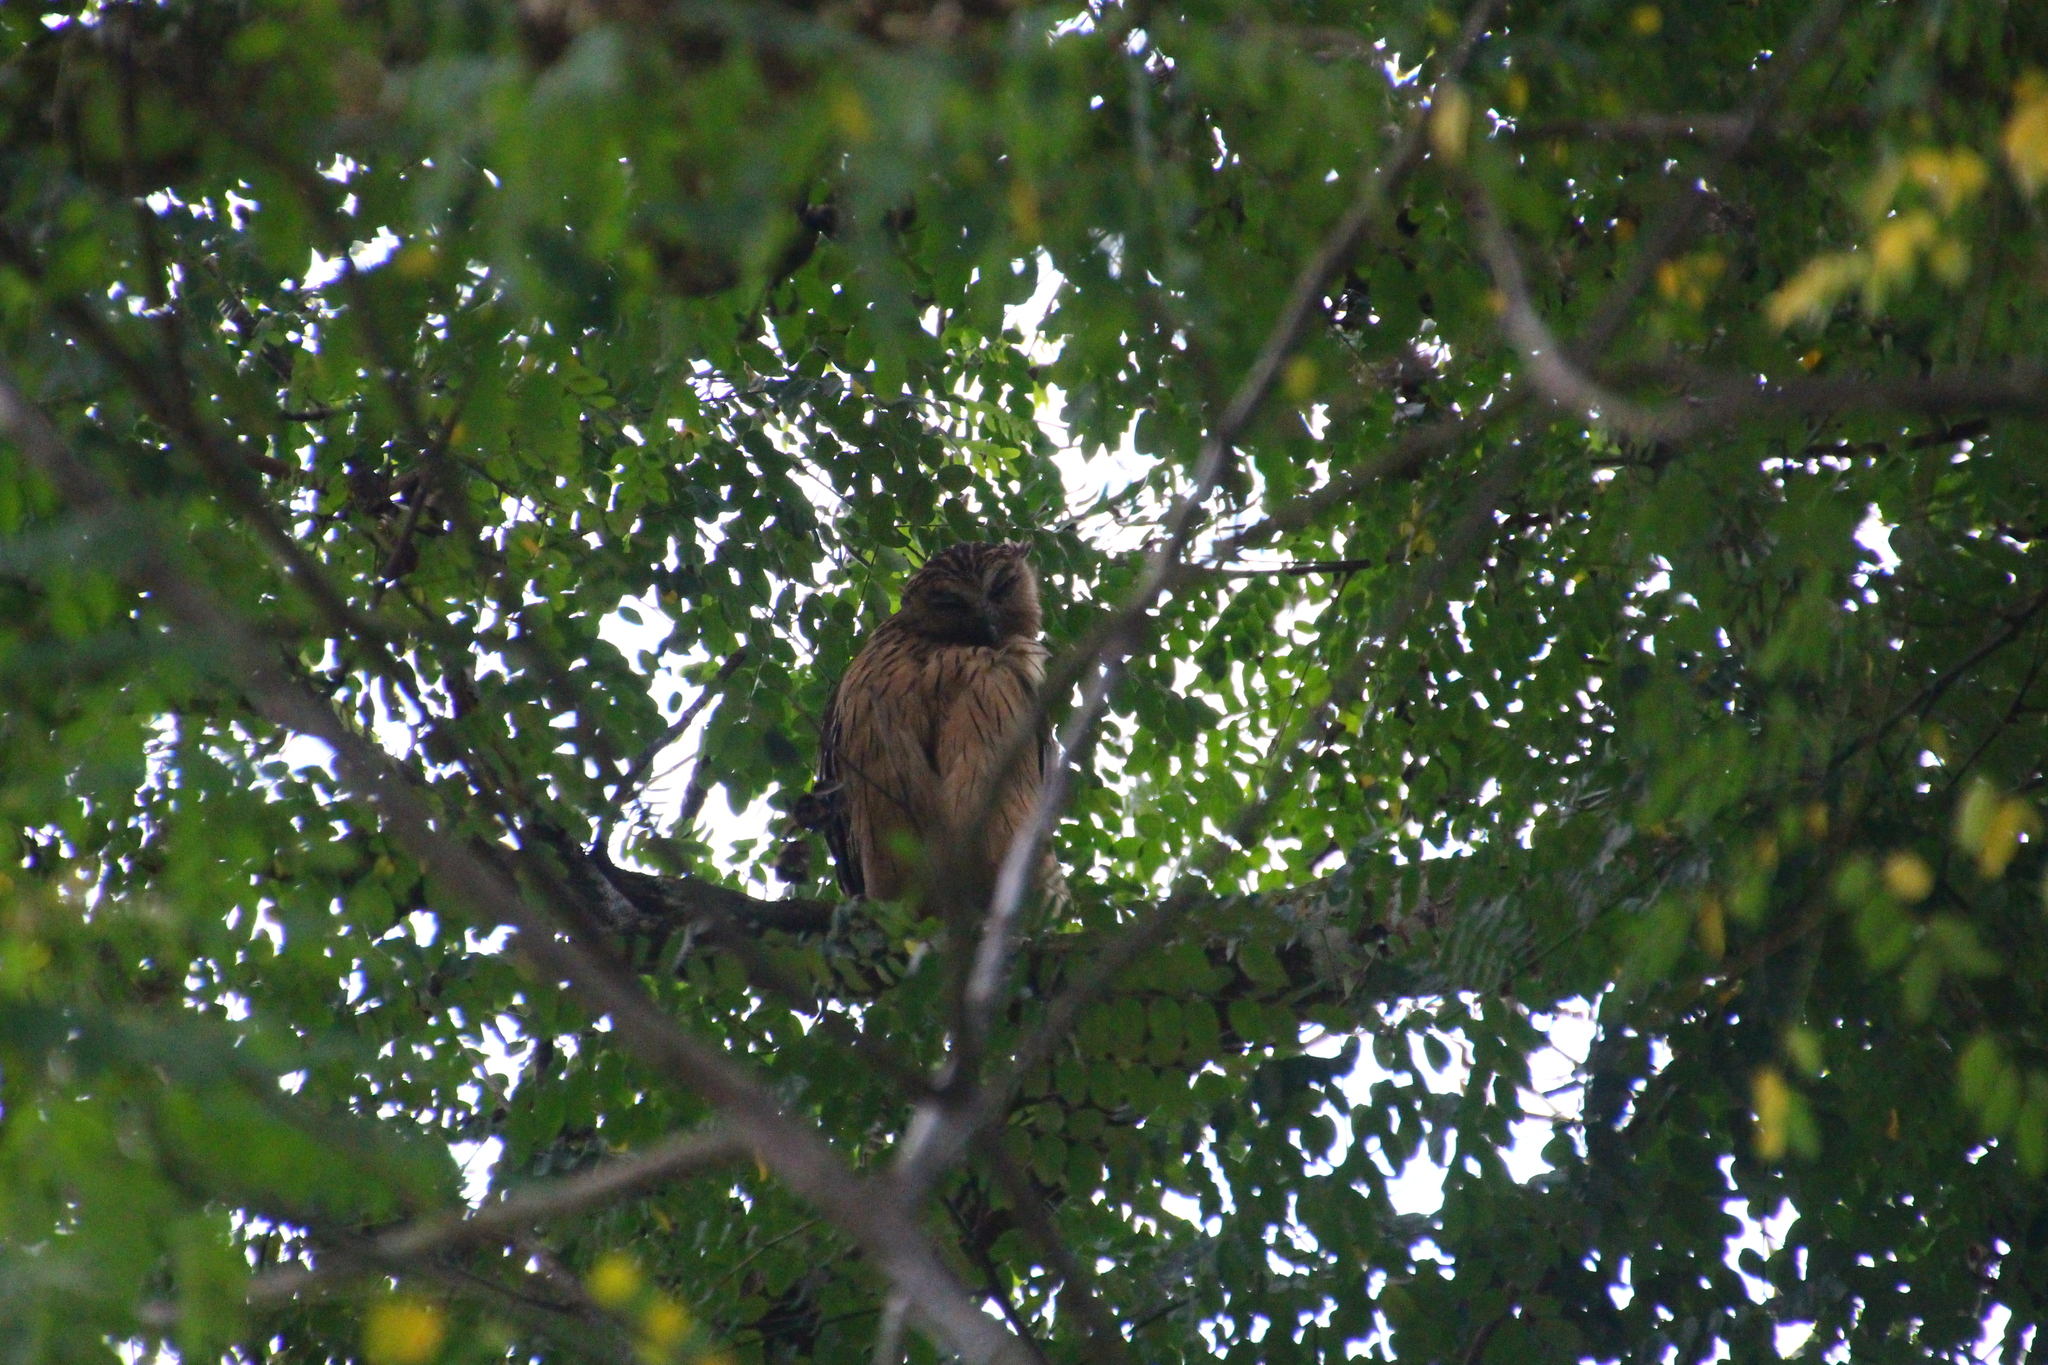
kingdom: Animalia
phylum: Chordata
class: Aves
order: Strigiformes
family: Strigidae
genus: Ketupa
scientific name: Ketupa ketupu
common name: Buffy fish-owl
